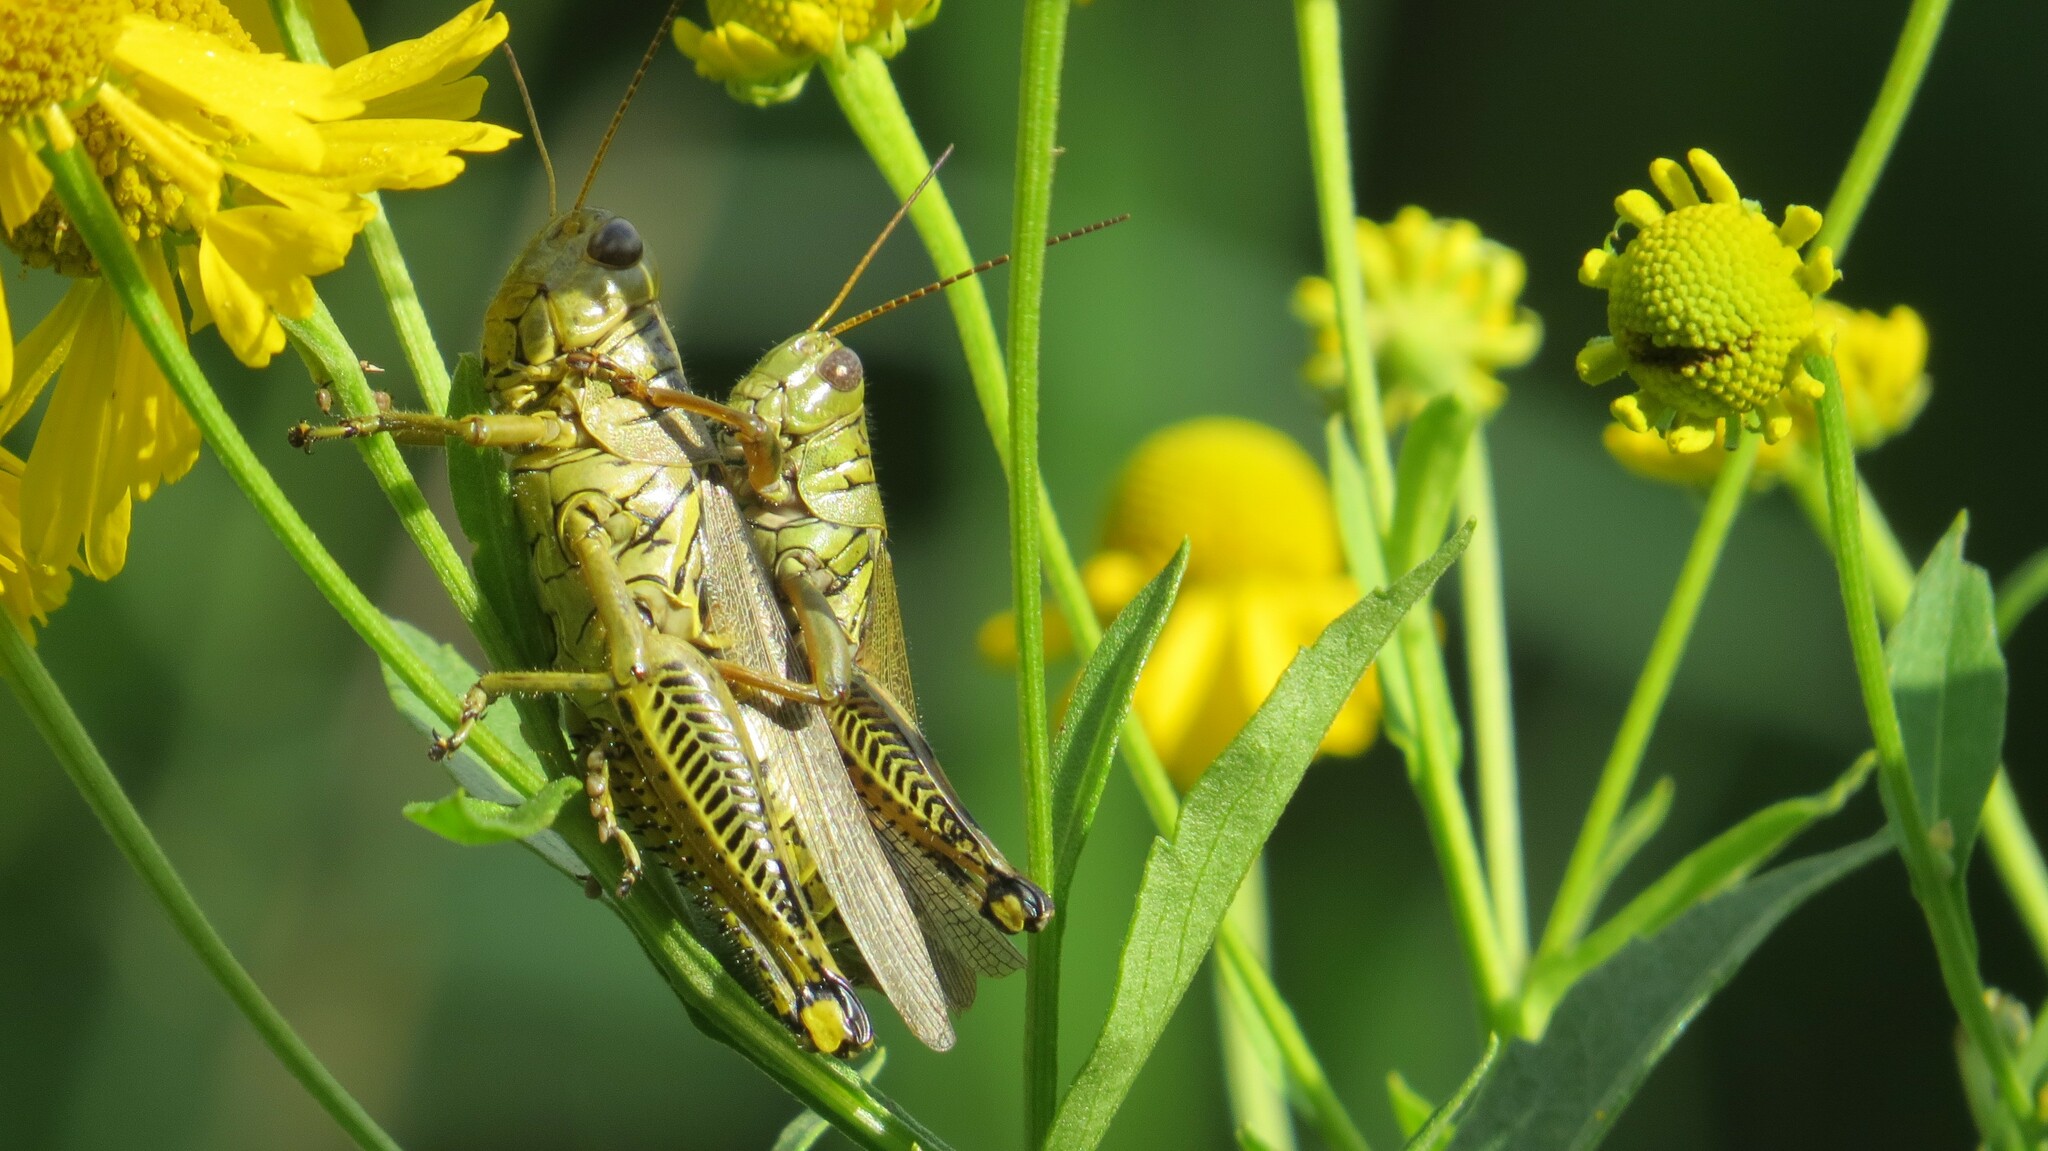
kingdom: Animalia
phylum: Arthropoda
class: Insecta
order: Orthoptera
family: Acrididae
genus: Melanoplus
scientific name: Melanoplus differentialis
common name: Differential grasshopper
